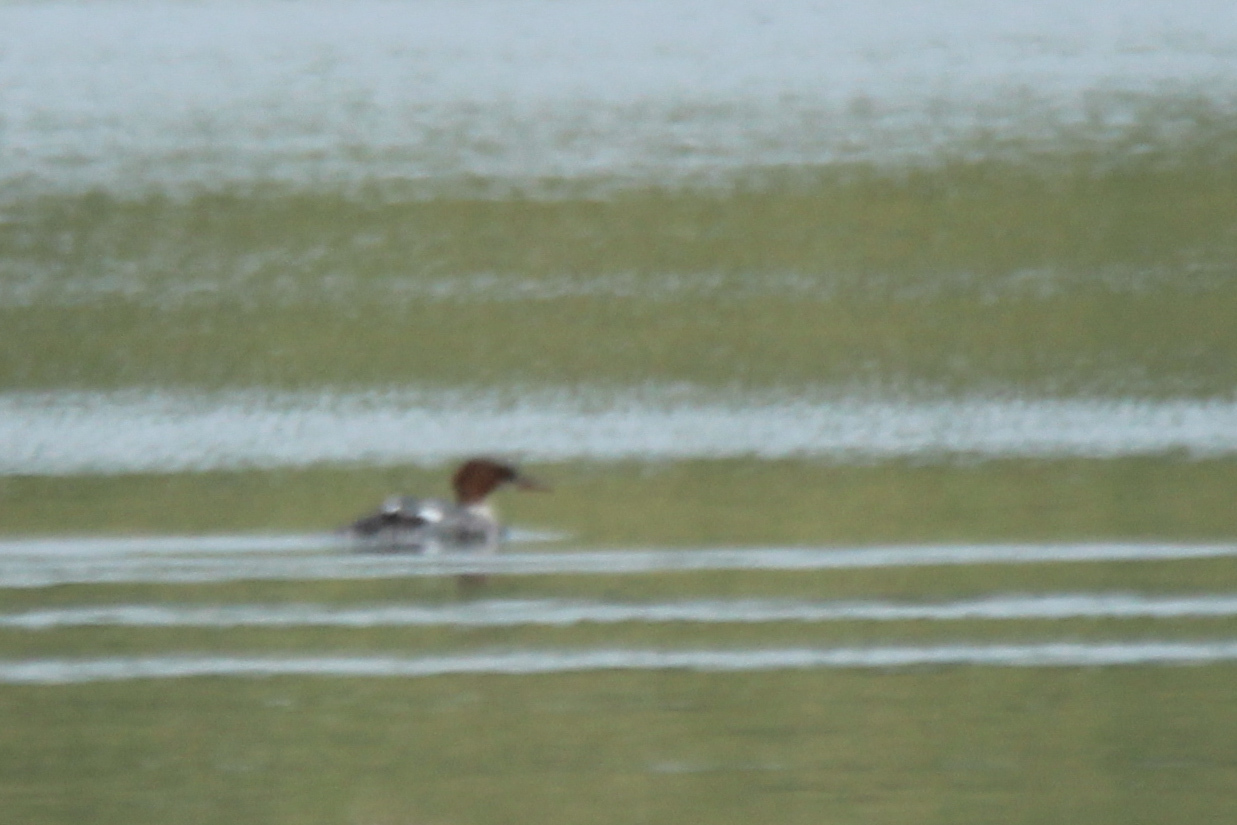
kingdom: Animalia
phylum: Chordata
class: Aves
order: Anseriformes
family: Anatidae
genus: Mergus
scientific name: Mergus merganser
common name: Common merganser
